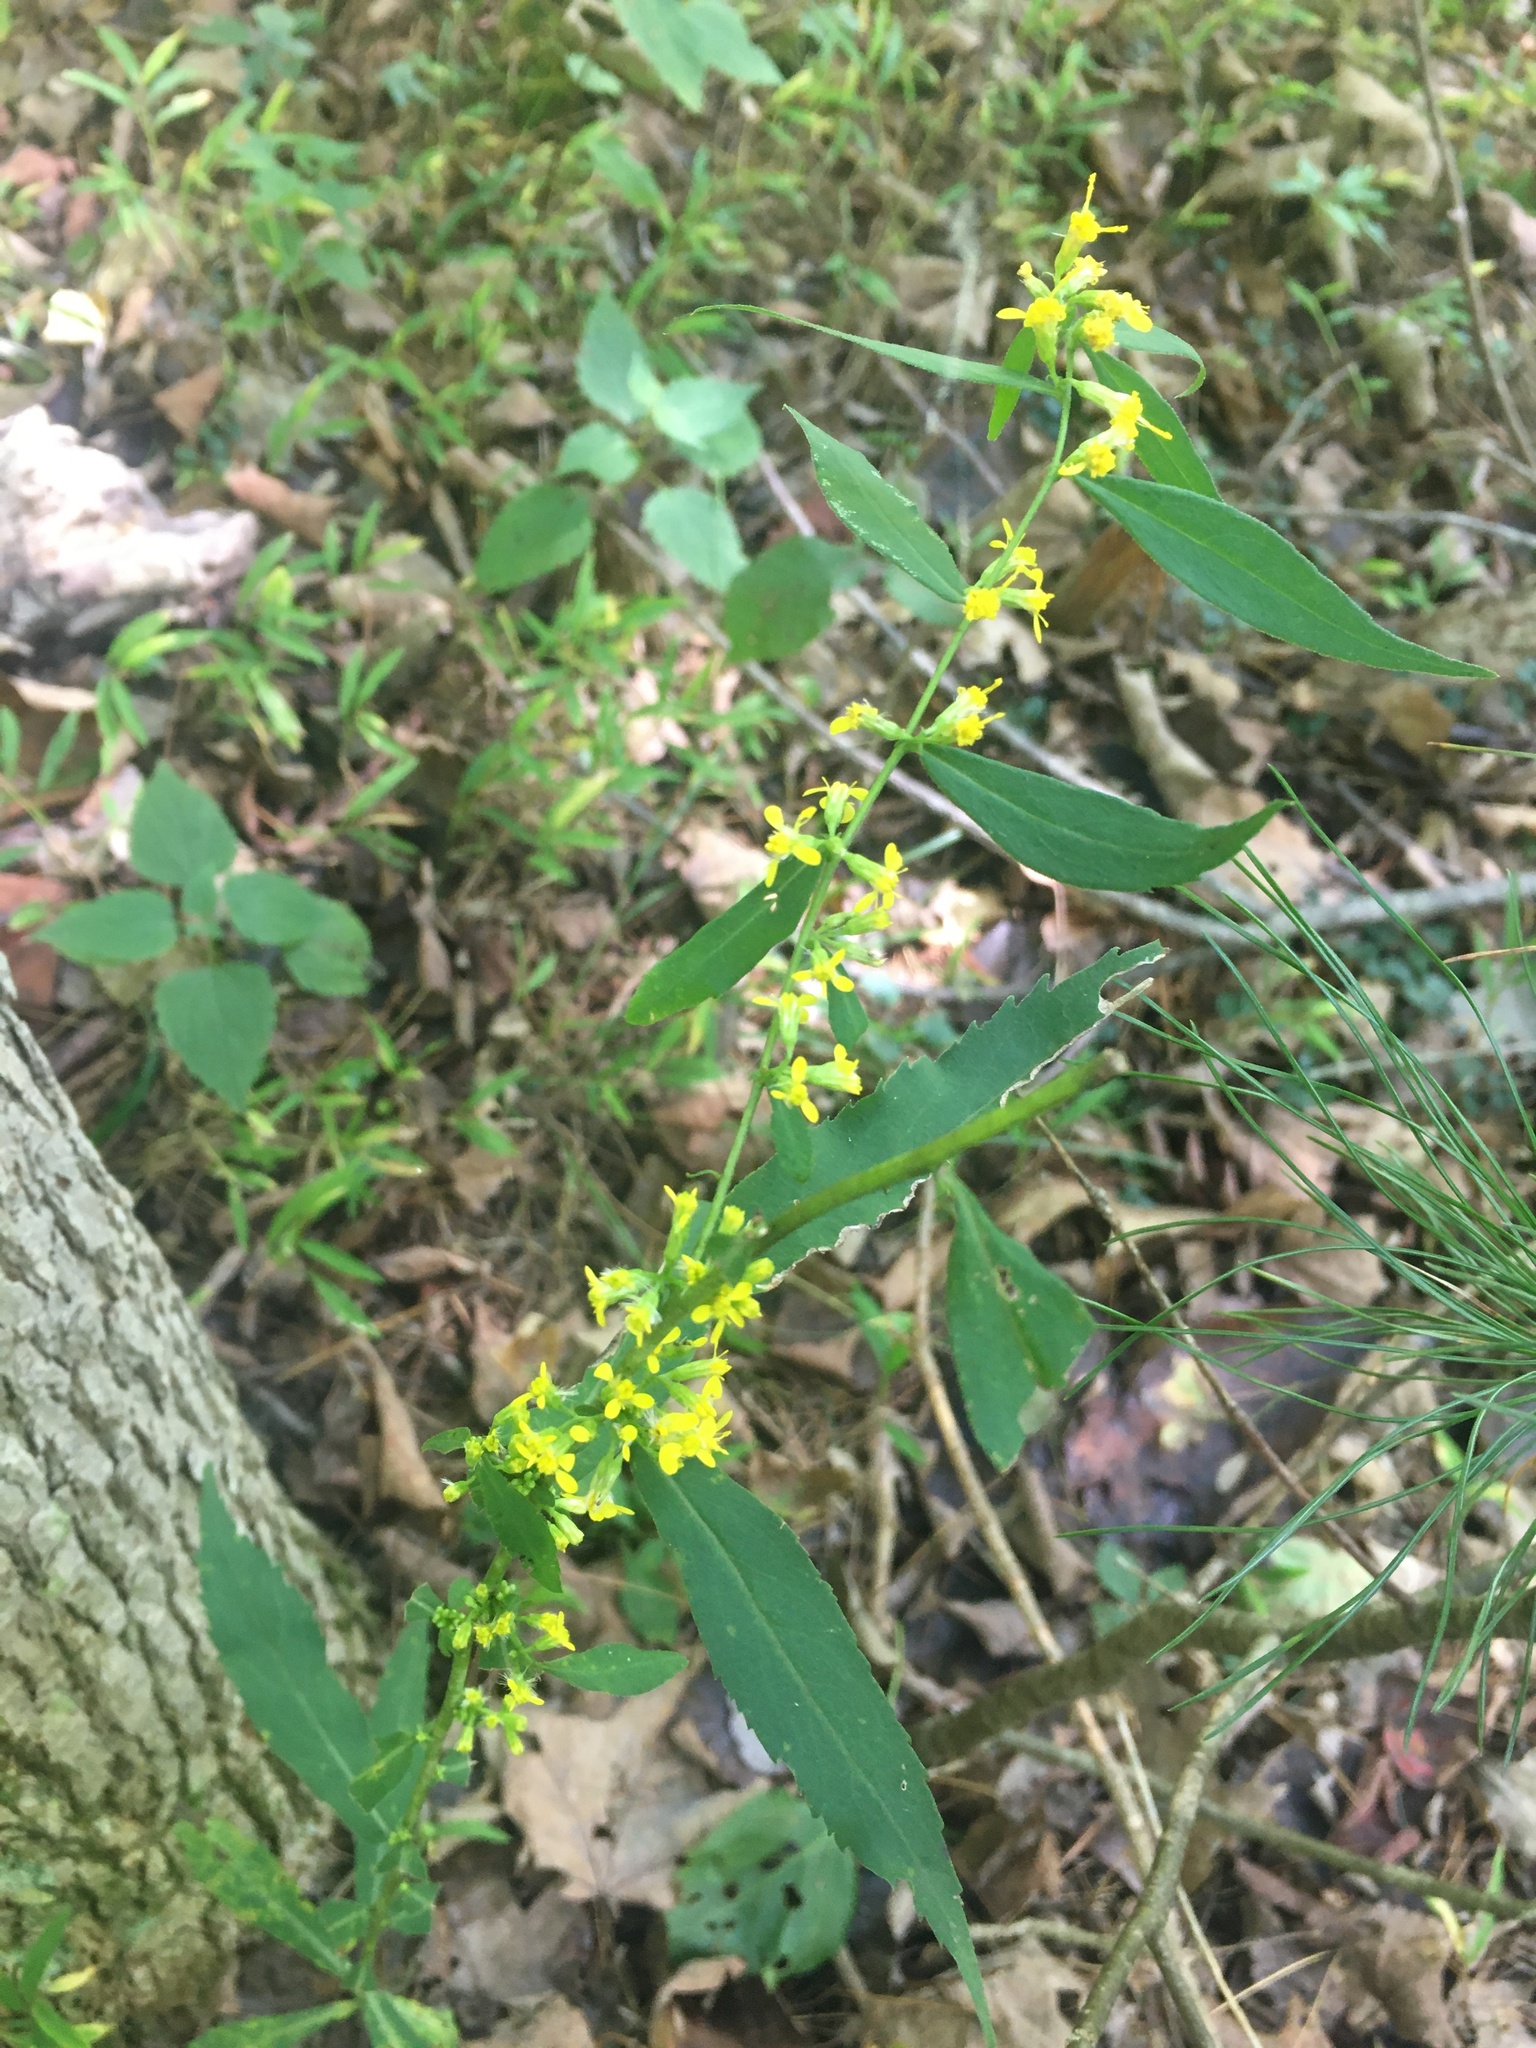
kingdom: Plantae
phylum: Tracheophyta
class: Magnoliopsida
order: Asterales
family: Asteraceae
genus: Solidago
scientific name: Solidago caesia
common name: Woodland goldenrod
